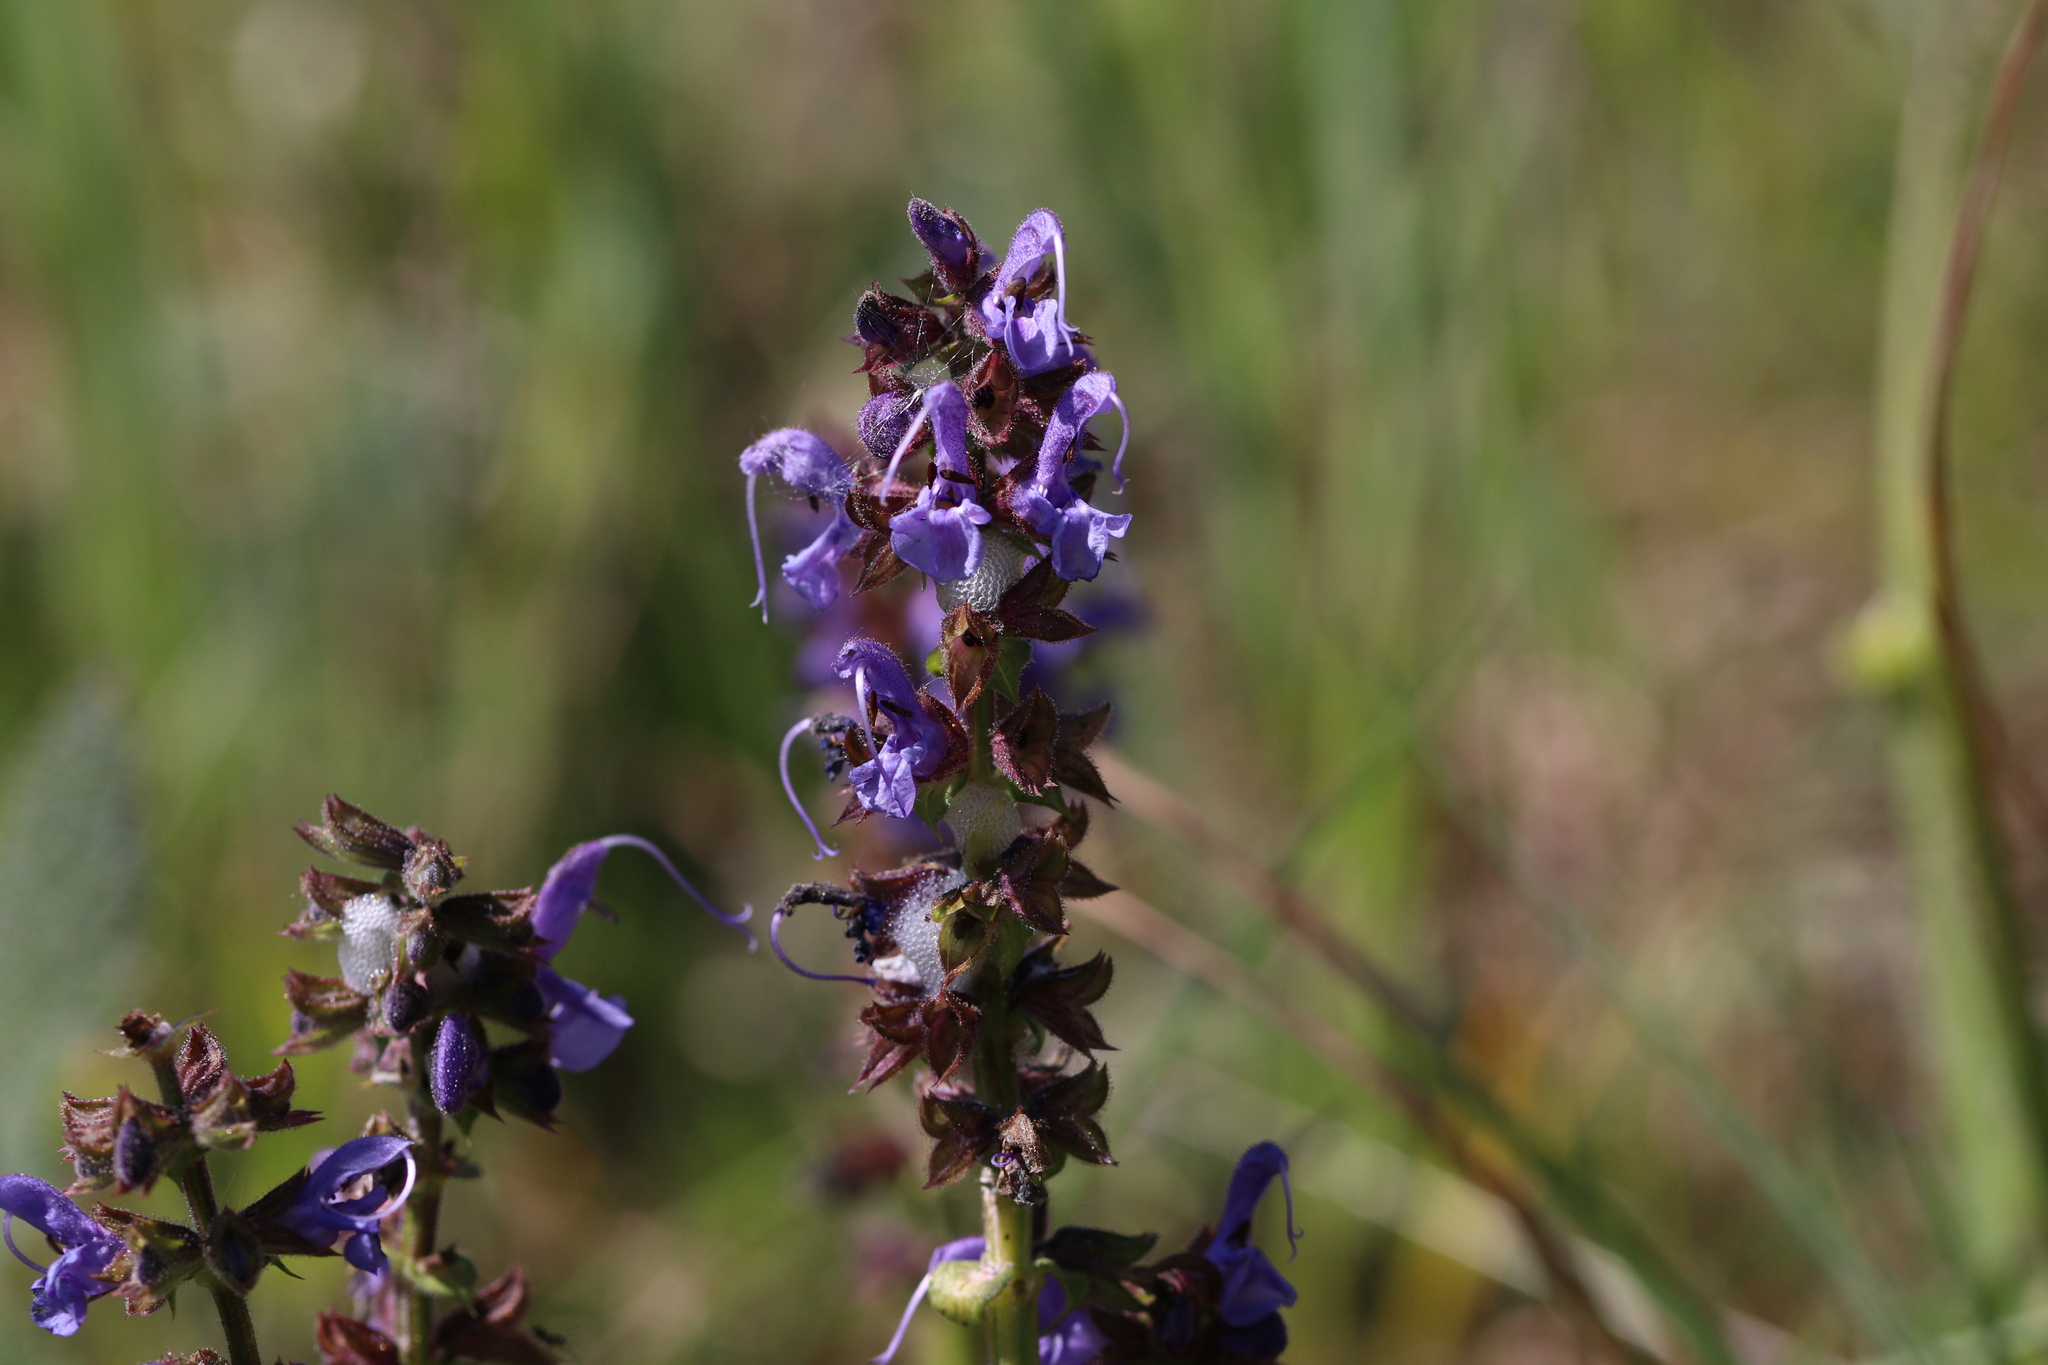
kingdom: Plantae
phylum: Tracheophyta
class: Magnoliopsida
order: Lamiales
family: Lamiaceae
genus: Salvia
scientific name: Salvia pratensis
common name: Meadow sage
